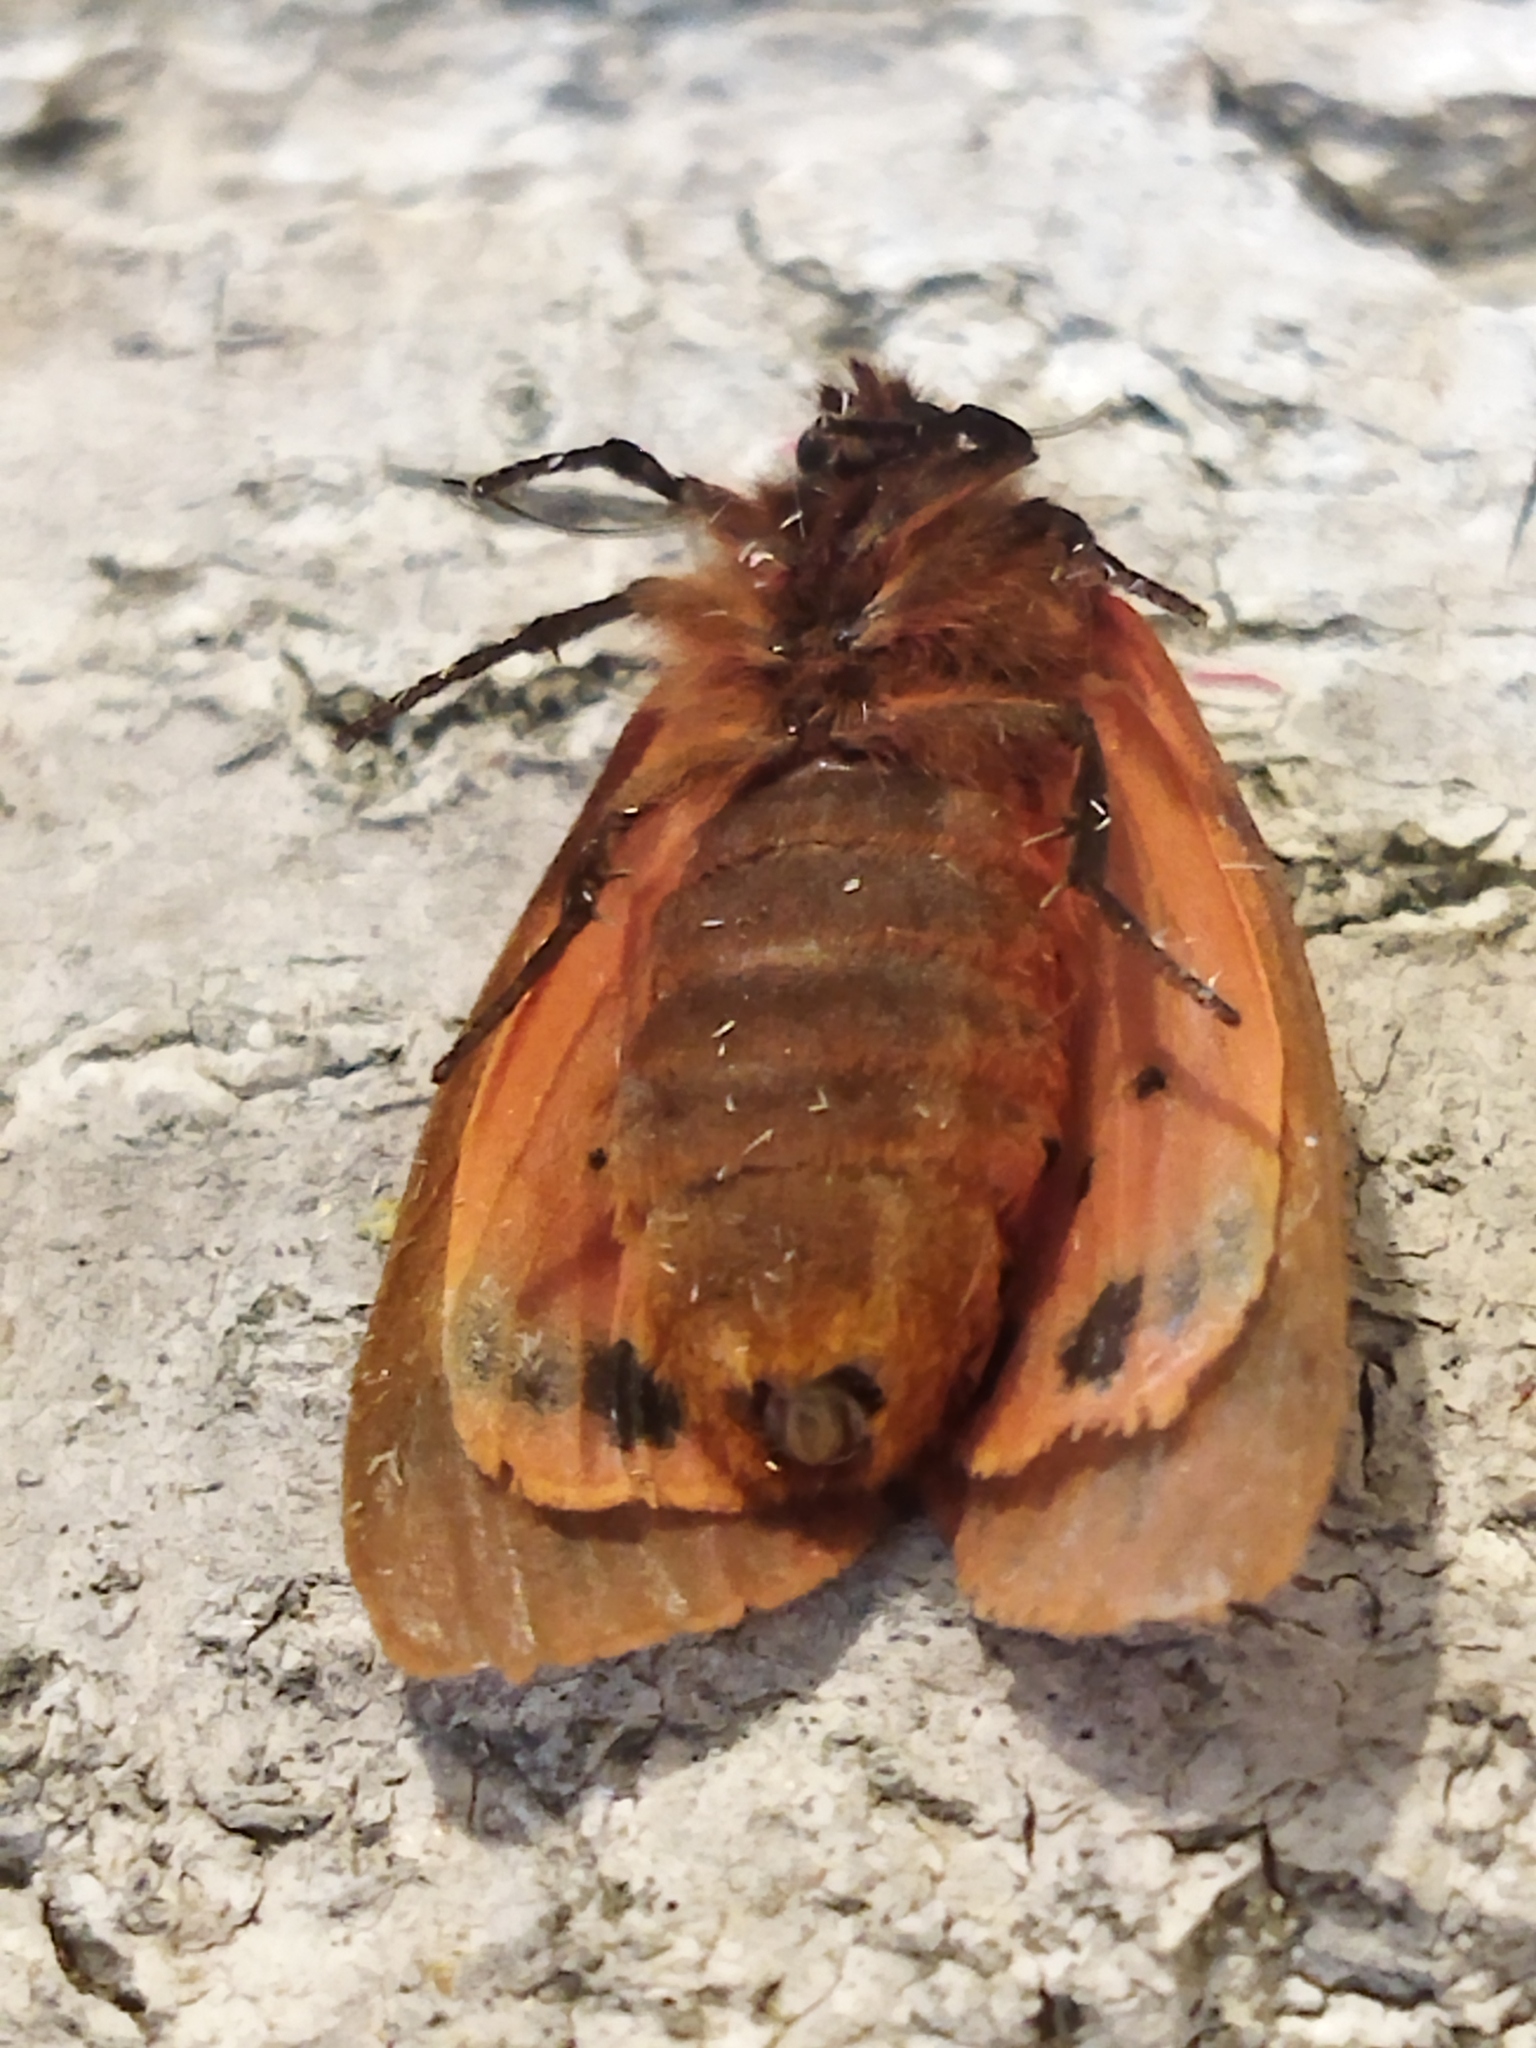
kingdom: Animalia
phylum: Arthropoda
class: Insecta
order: Lepidoptera
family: Erebidae
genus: Phragmatobia
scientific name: Phragmatobia fuliginosa
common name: Ruby tiger
